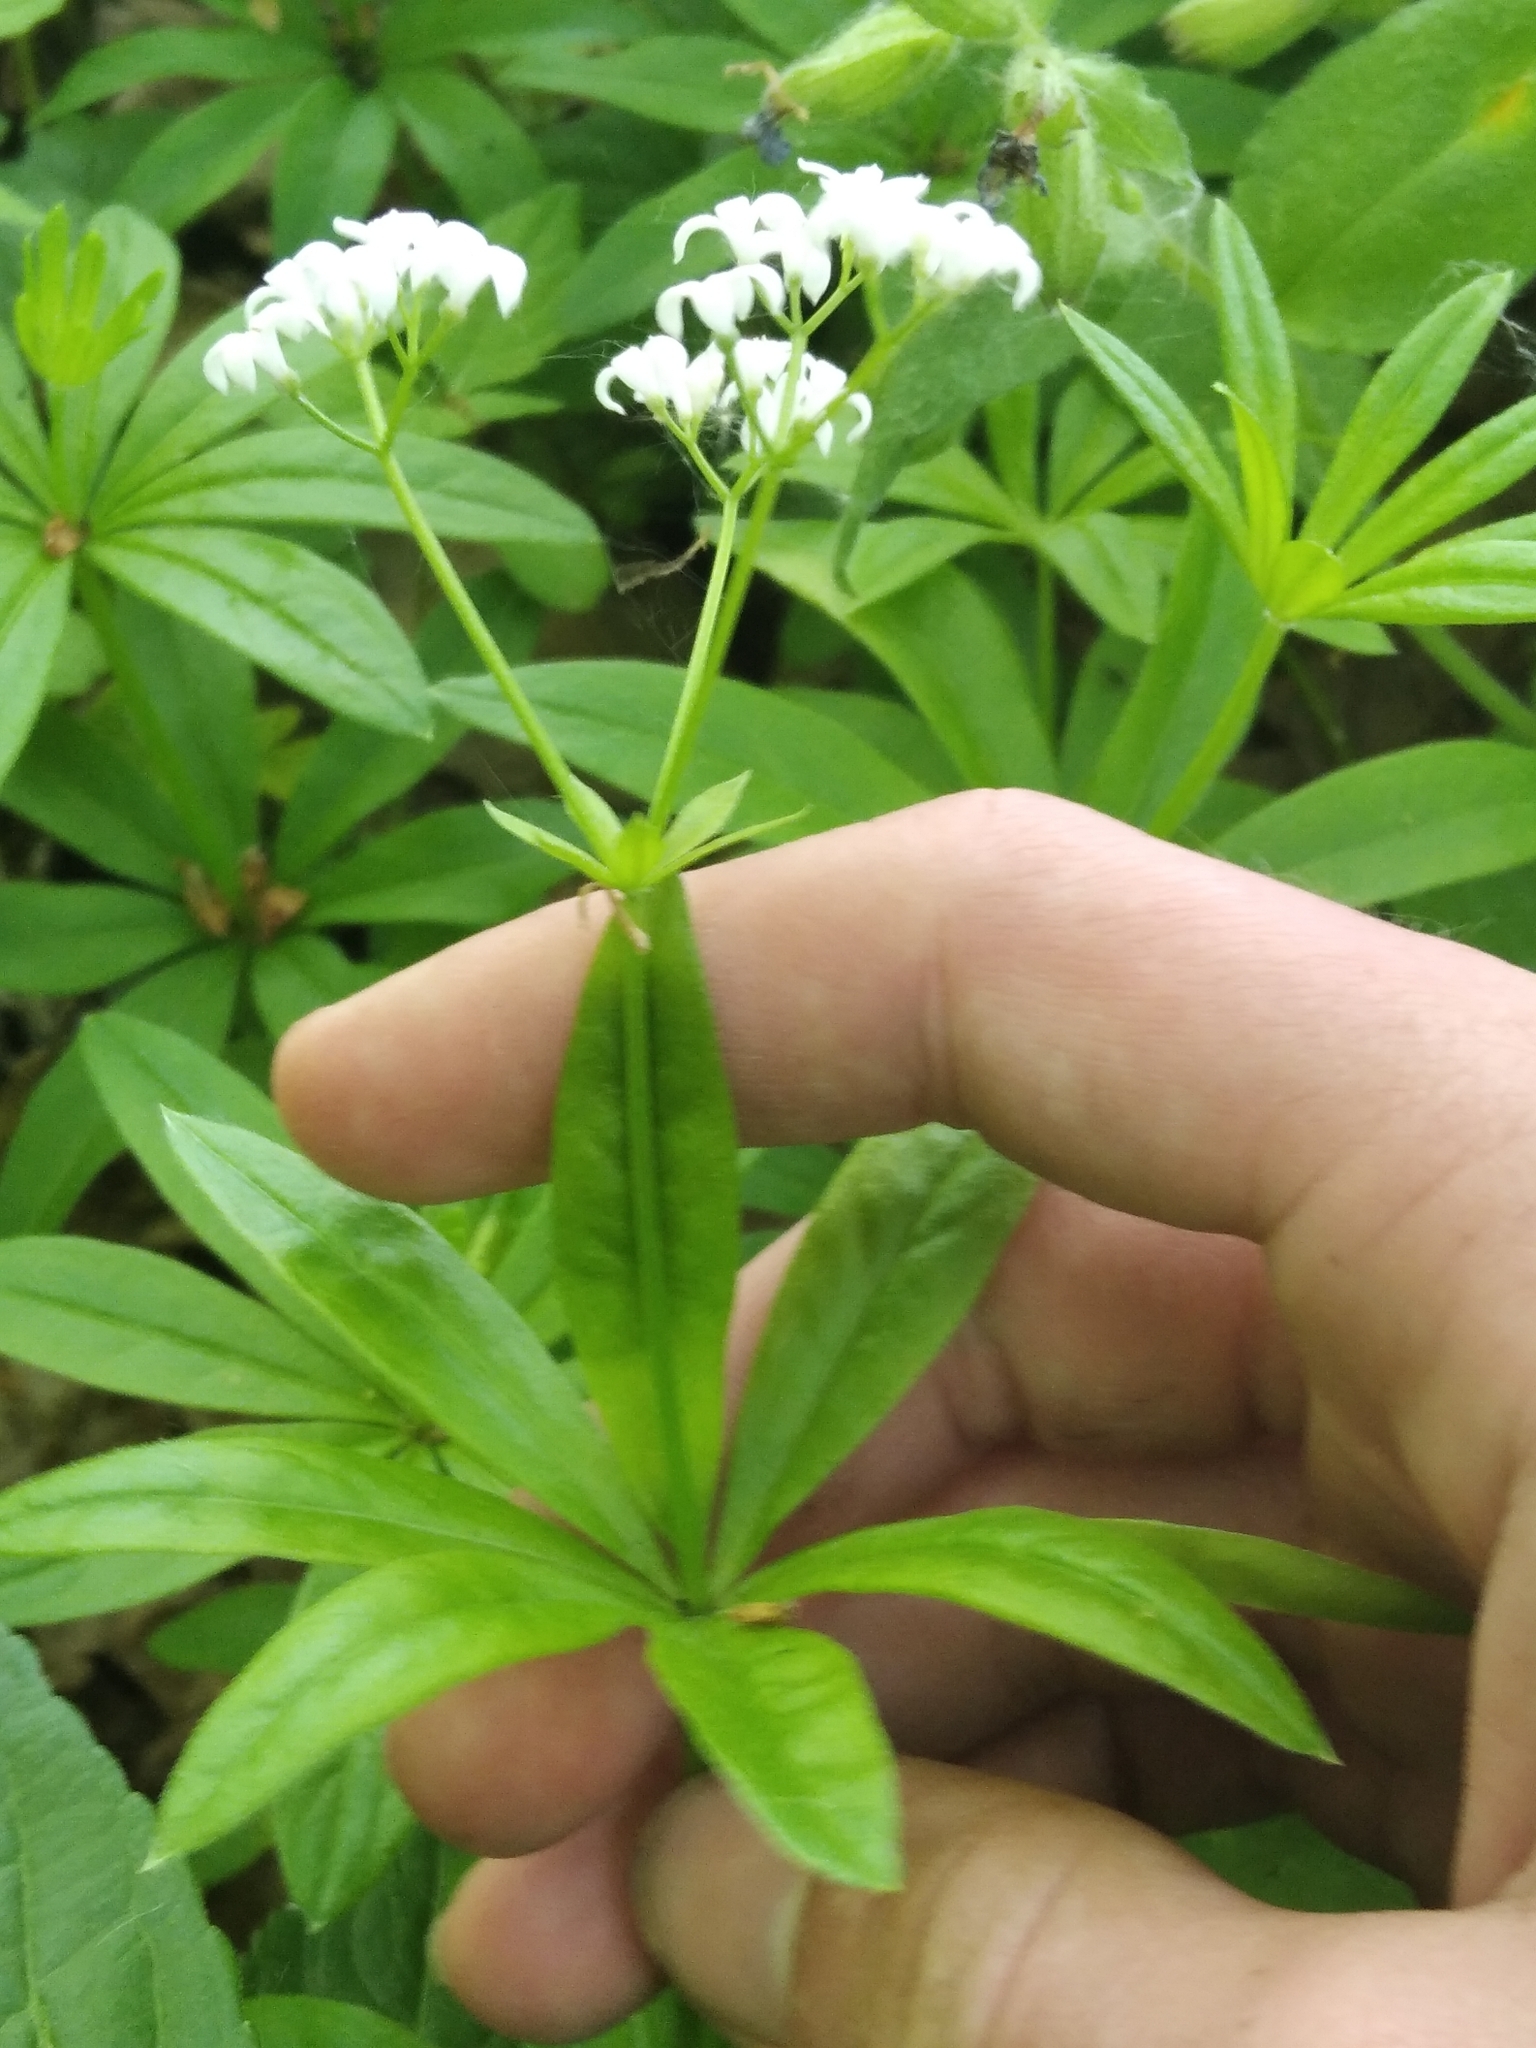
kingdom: Plantae
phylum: Tracheophyta
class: Magnoliopsida
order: Gentianales
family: Rubiaceae
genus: Galium
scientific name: Galium odoratum
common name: Sweet woodruff
